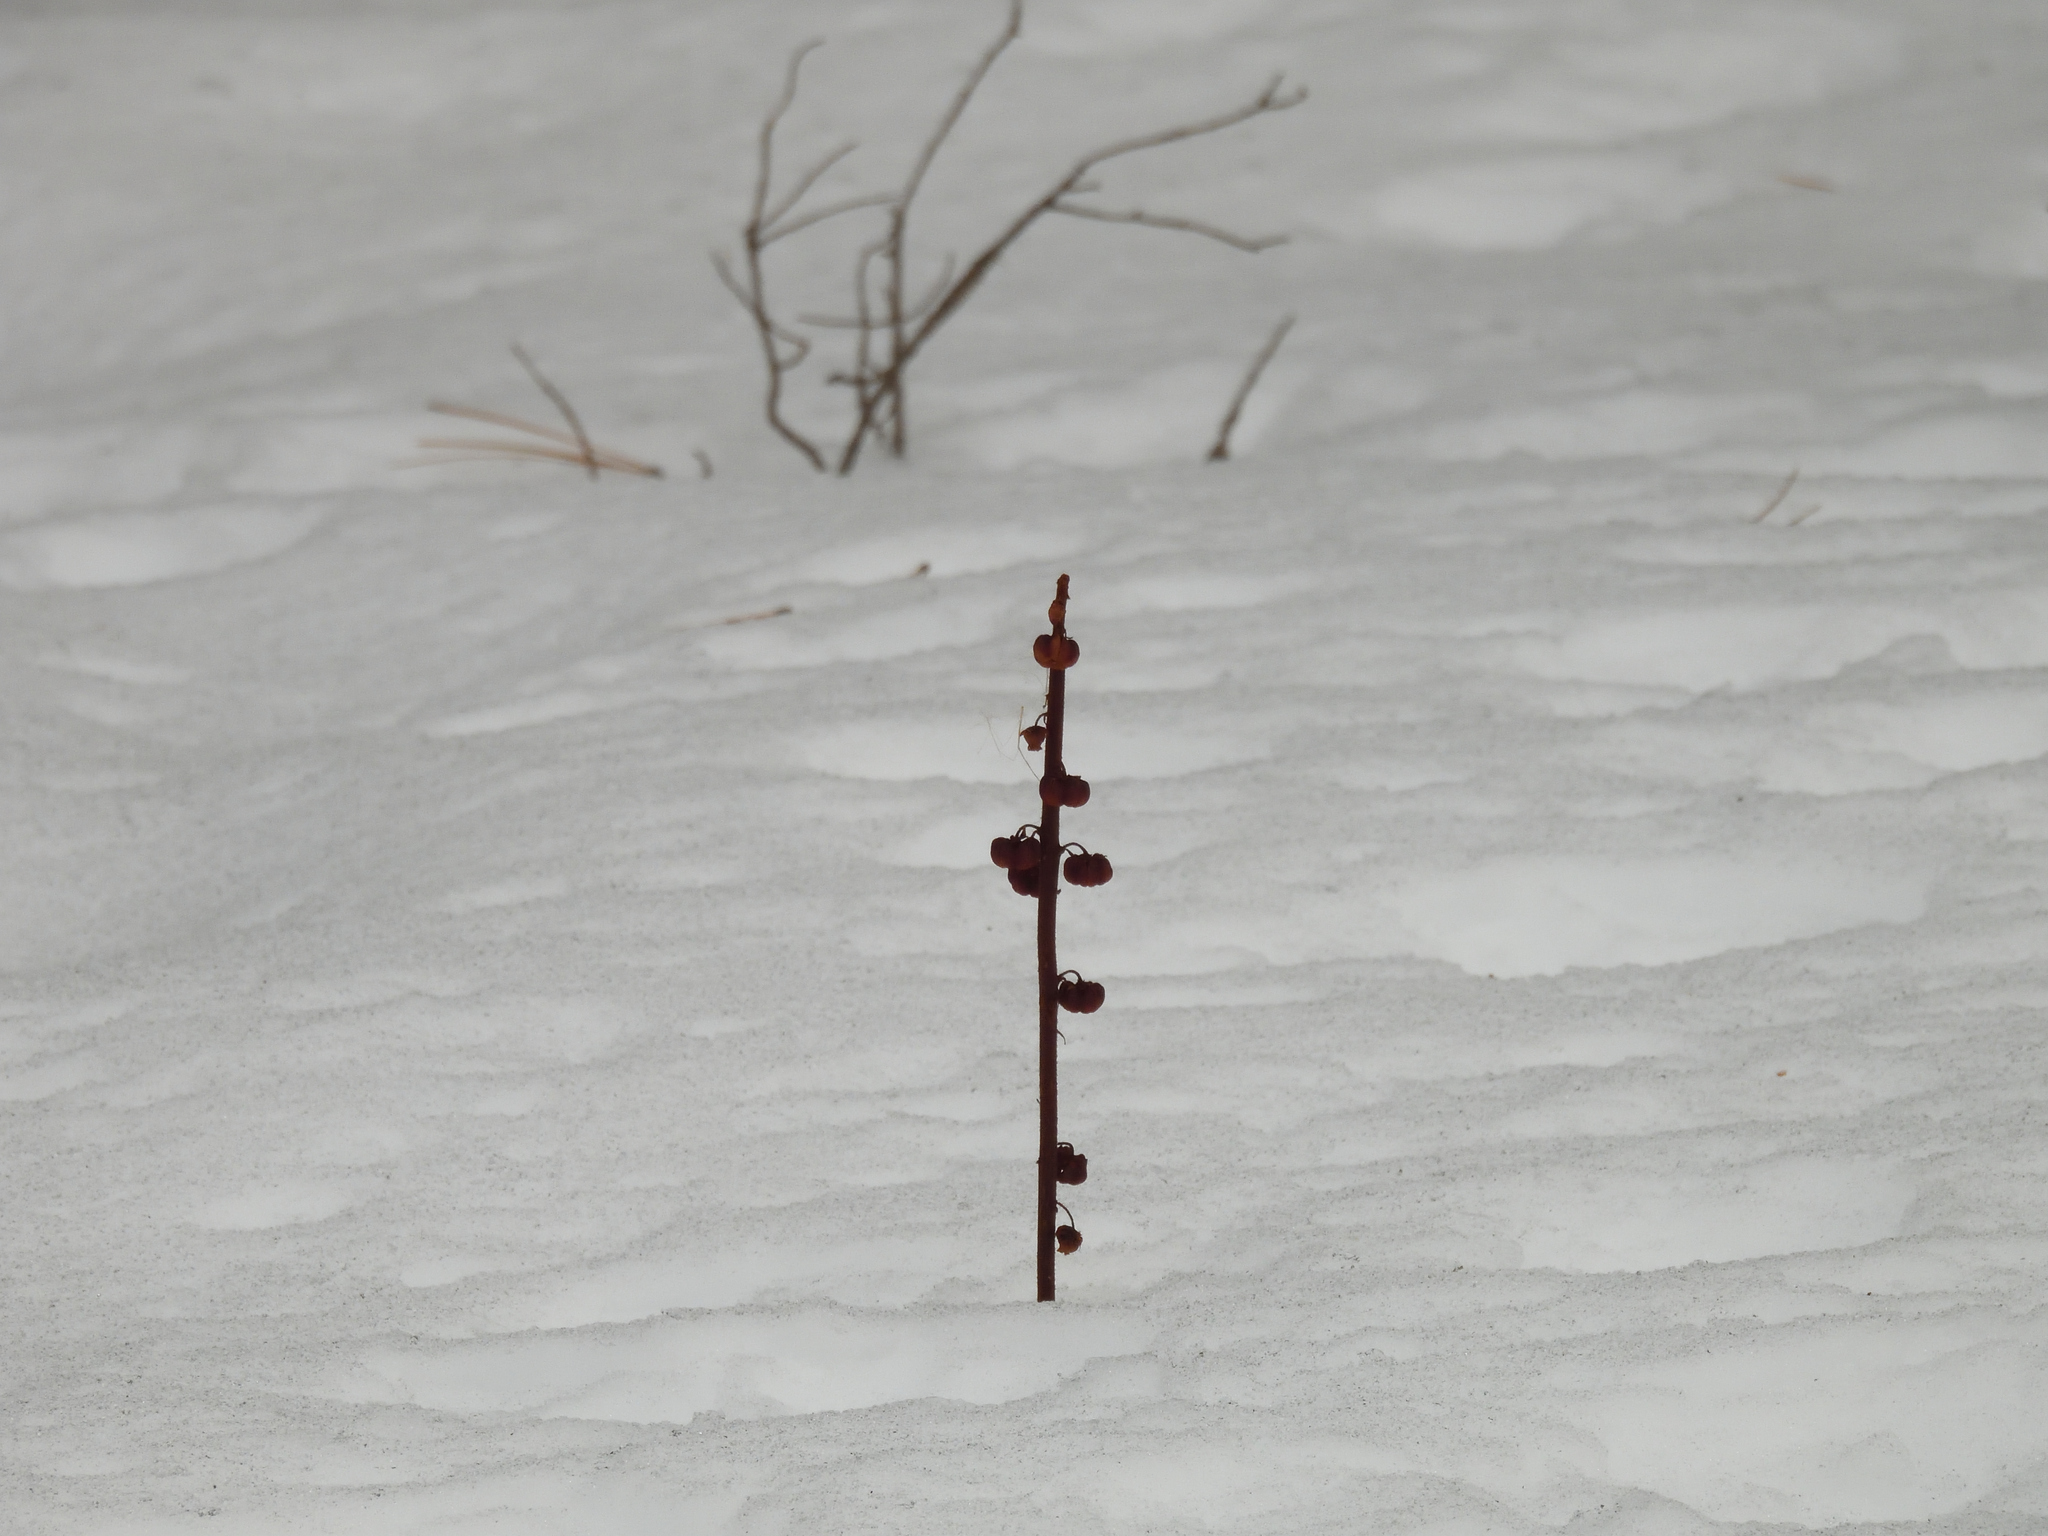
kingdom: Plantae
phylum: Tracheophyta
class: Magnoliopsida
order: Ericales
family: Ericaceae
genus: Pterospora
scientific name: Pterospora andromedea
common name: Giant bird's-nest
